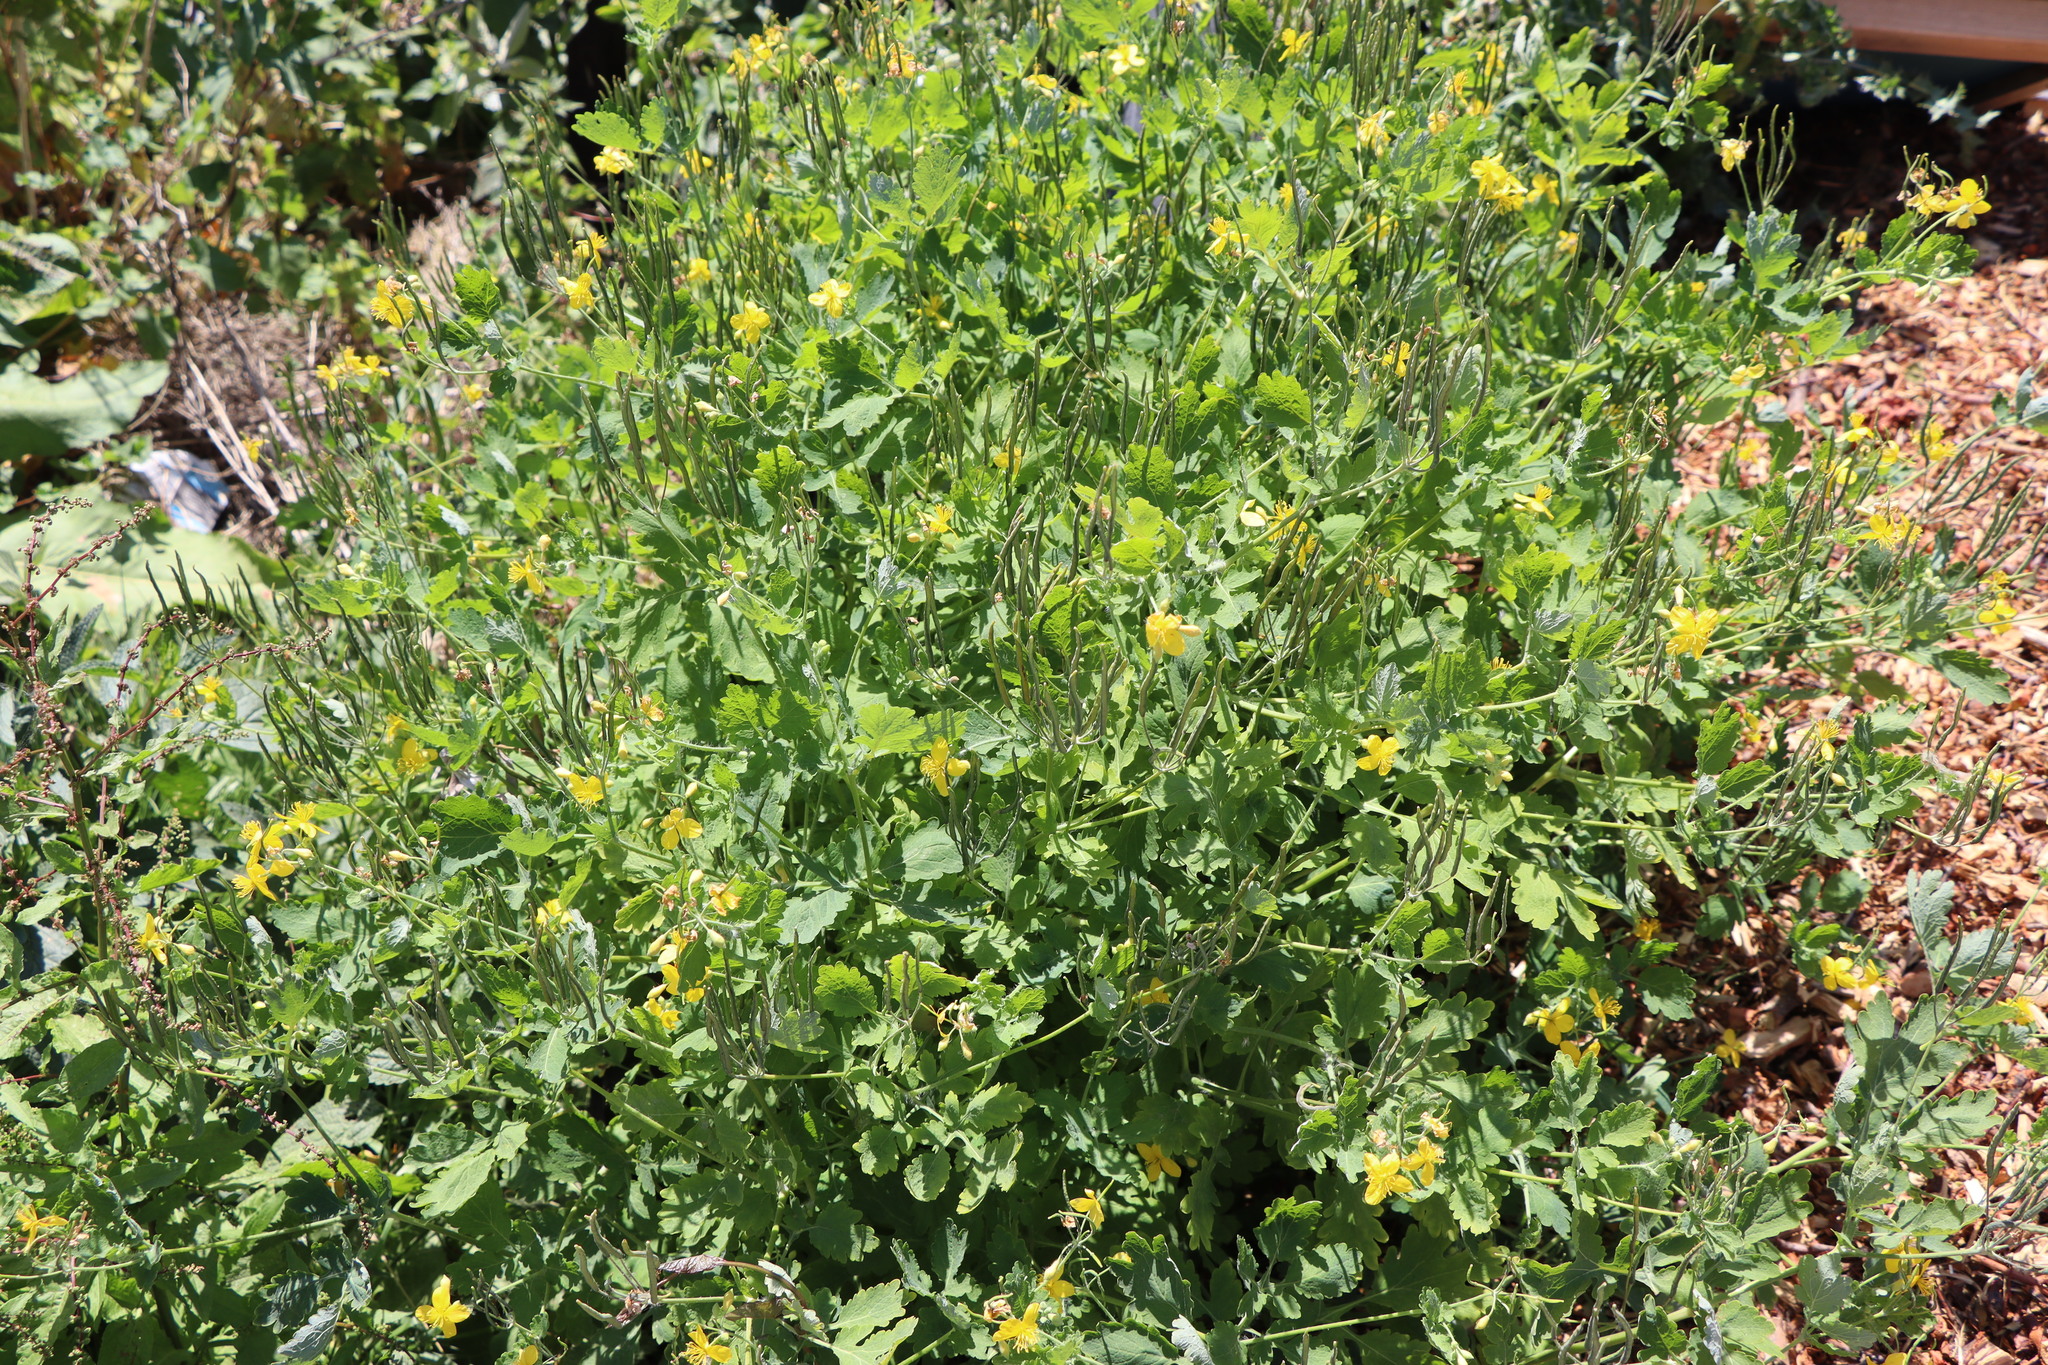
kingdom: Plantae
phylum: Tracheophyta
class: Magnoliopsida
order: Ranunculales
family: Papaveraceae
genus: Chelidonium
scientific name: Chelidonium majus
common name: Greater celandine
